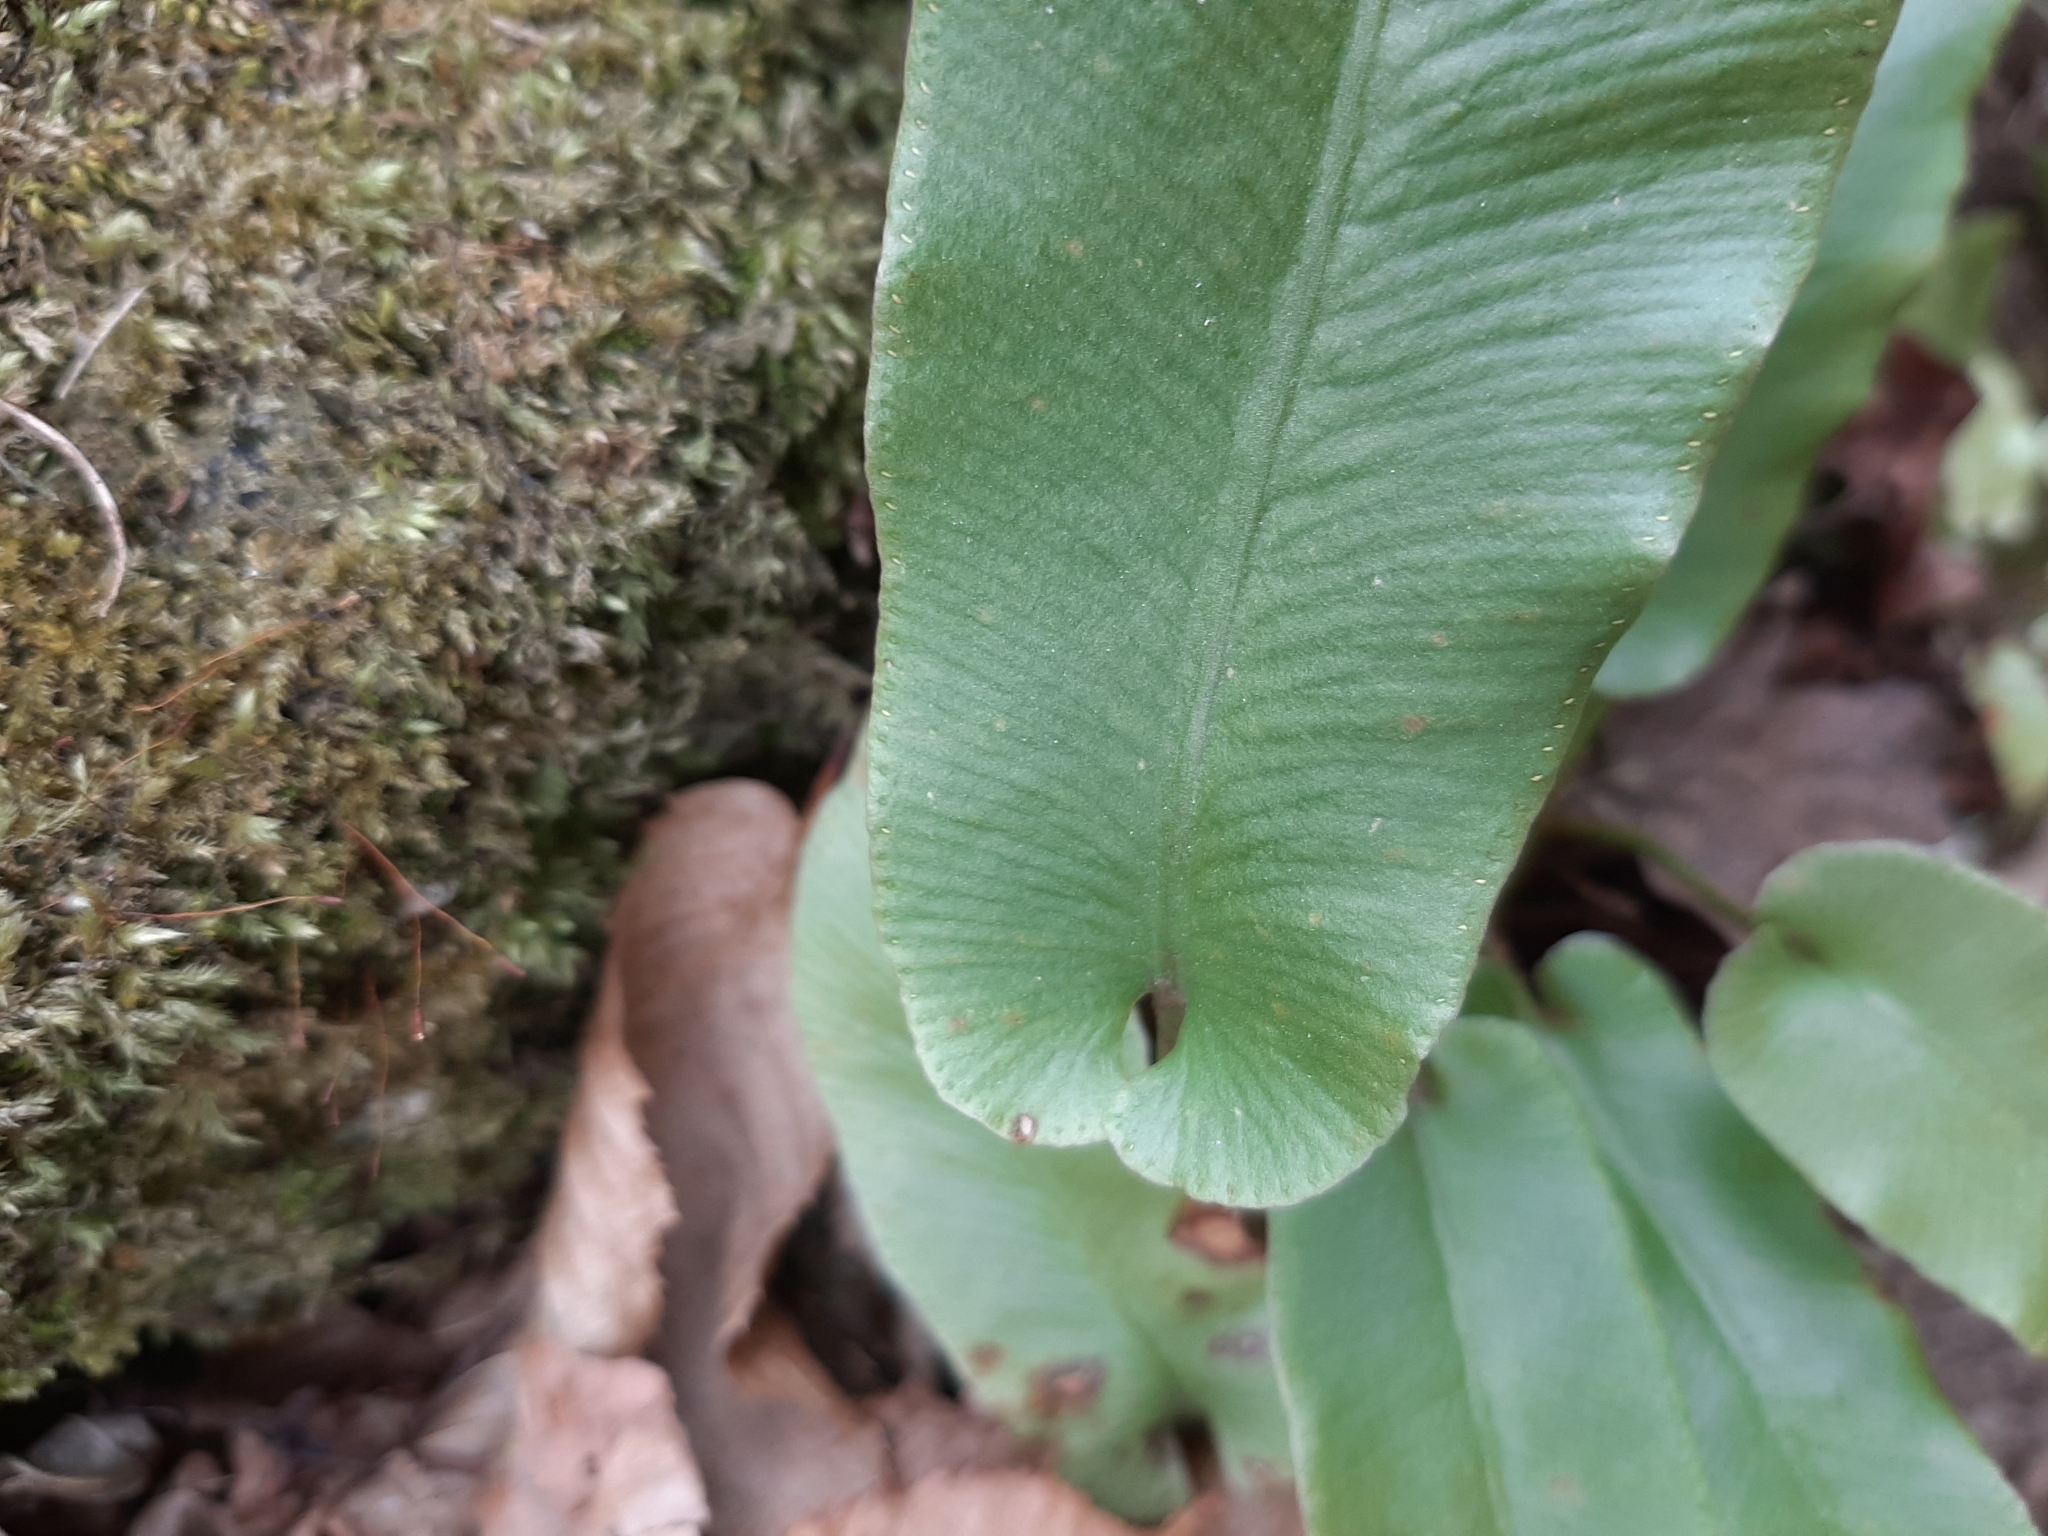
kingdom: Plantae
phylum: Tracheophyta
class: Polypodiopsida
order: Polypodiales
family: Aspleniaceae
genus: Asplenium
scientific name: Asplenium scolopendrium
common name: Hart's-tongue fern
